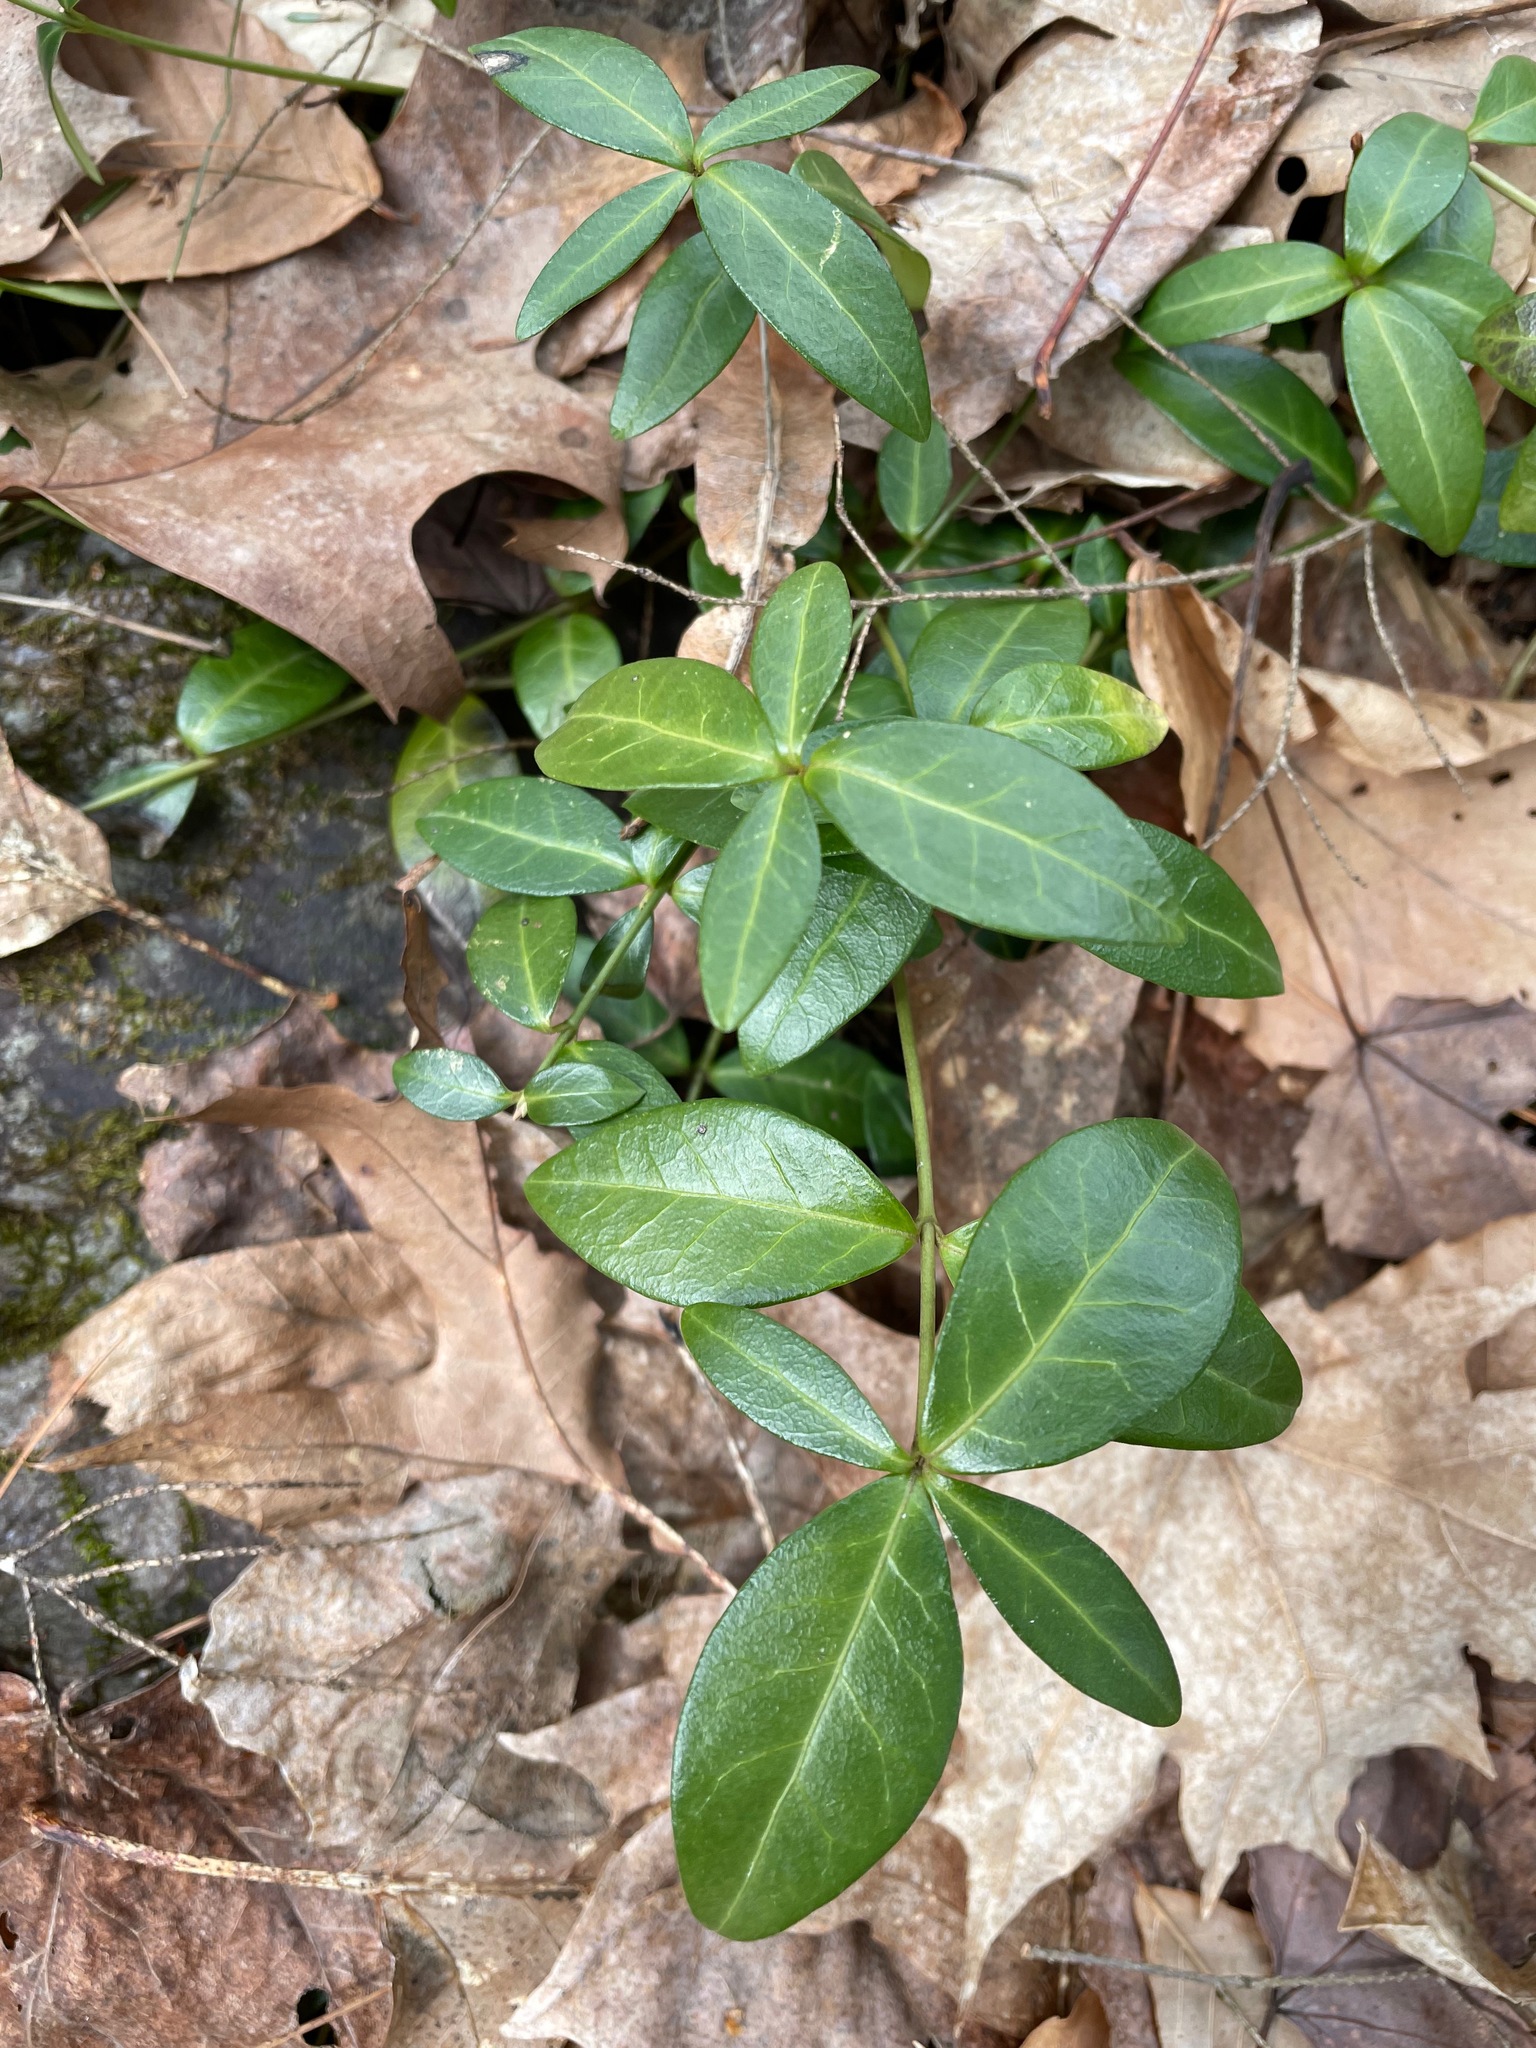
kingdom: Plantae
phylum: Tracheophyta
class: Magnoliopsida
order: Gentianales
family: Apocynaceae
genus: Vinca
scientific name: Vinca minor
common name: Lesser periwinkle
